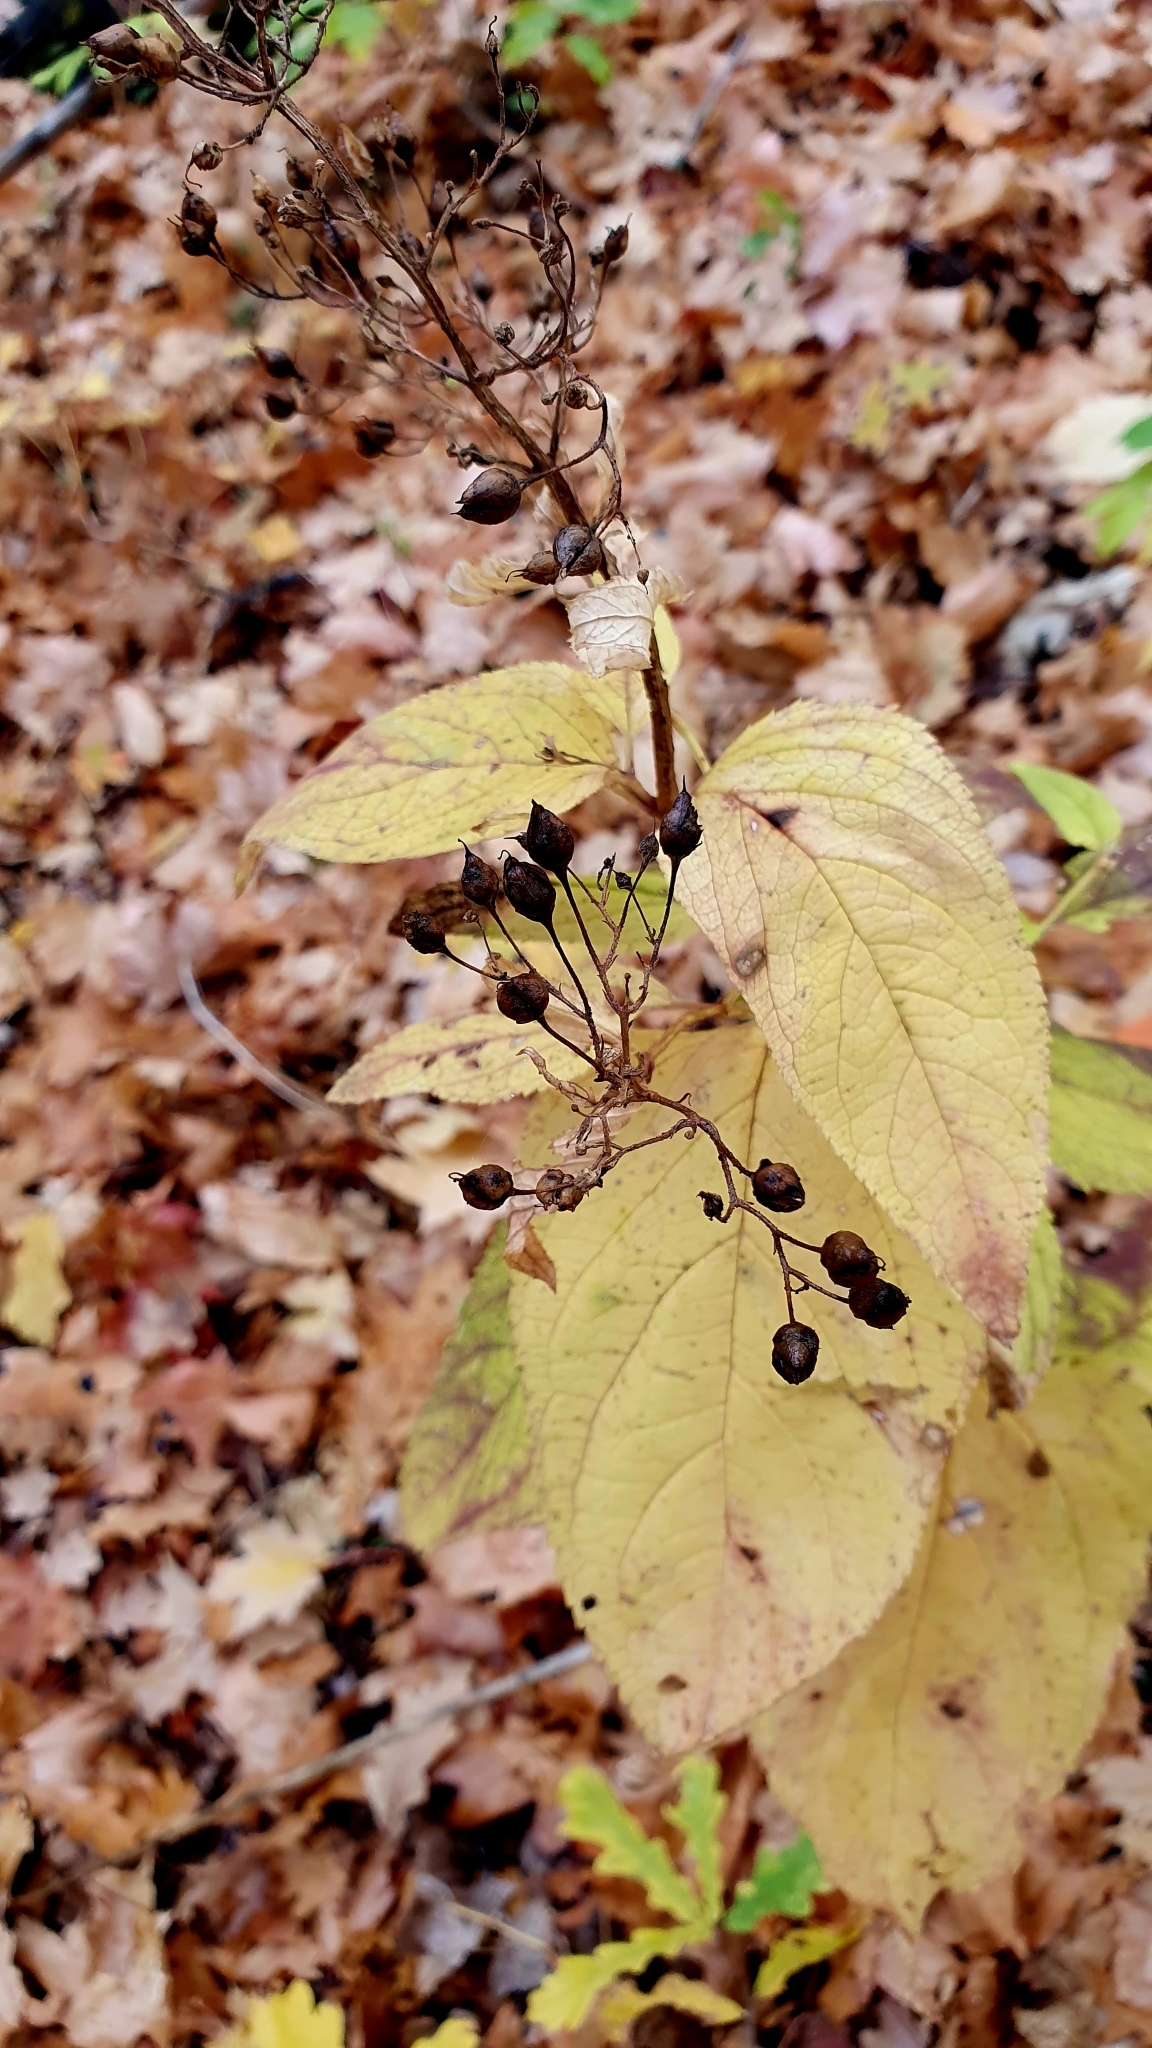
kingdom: Plantae
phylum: Tracheophyta
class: Magnoliopsida
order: Lamiales
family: Scrophulariaceae
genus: Scrophularia
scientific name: Scrophularia nodosa
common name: Common figwort
